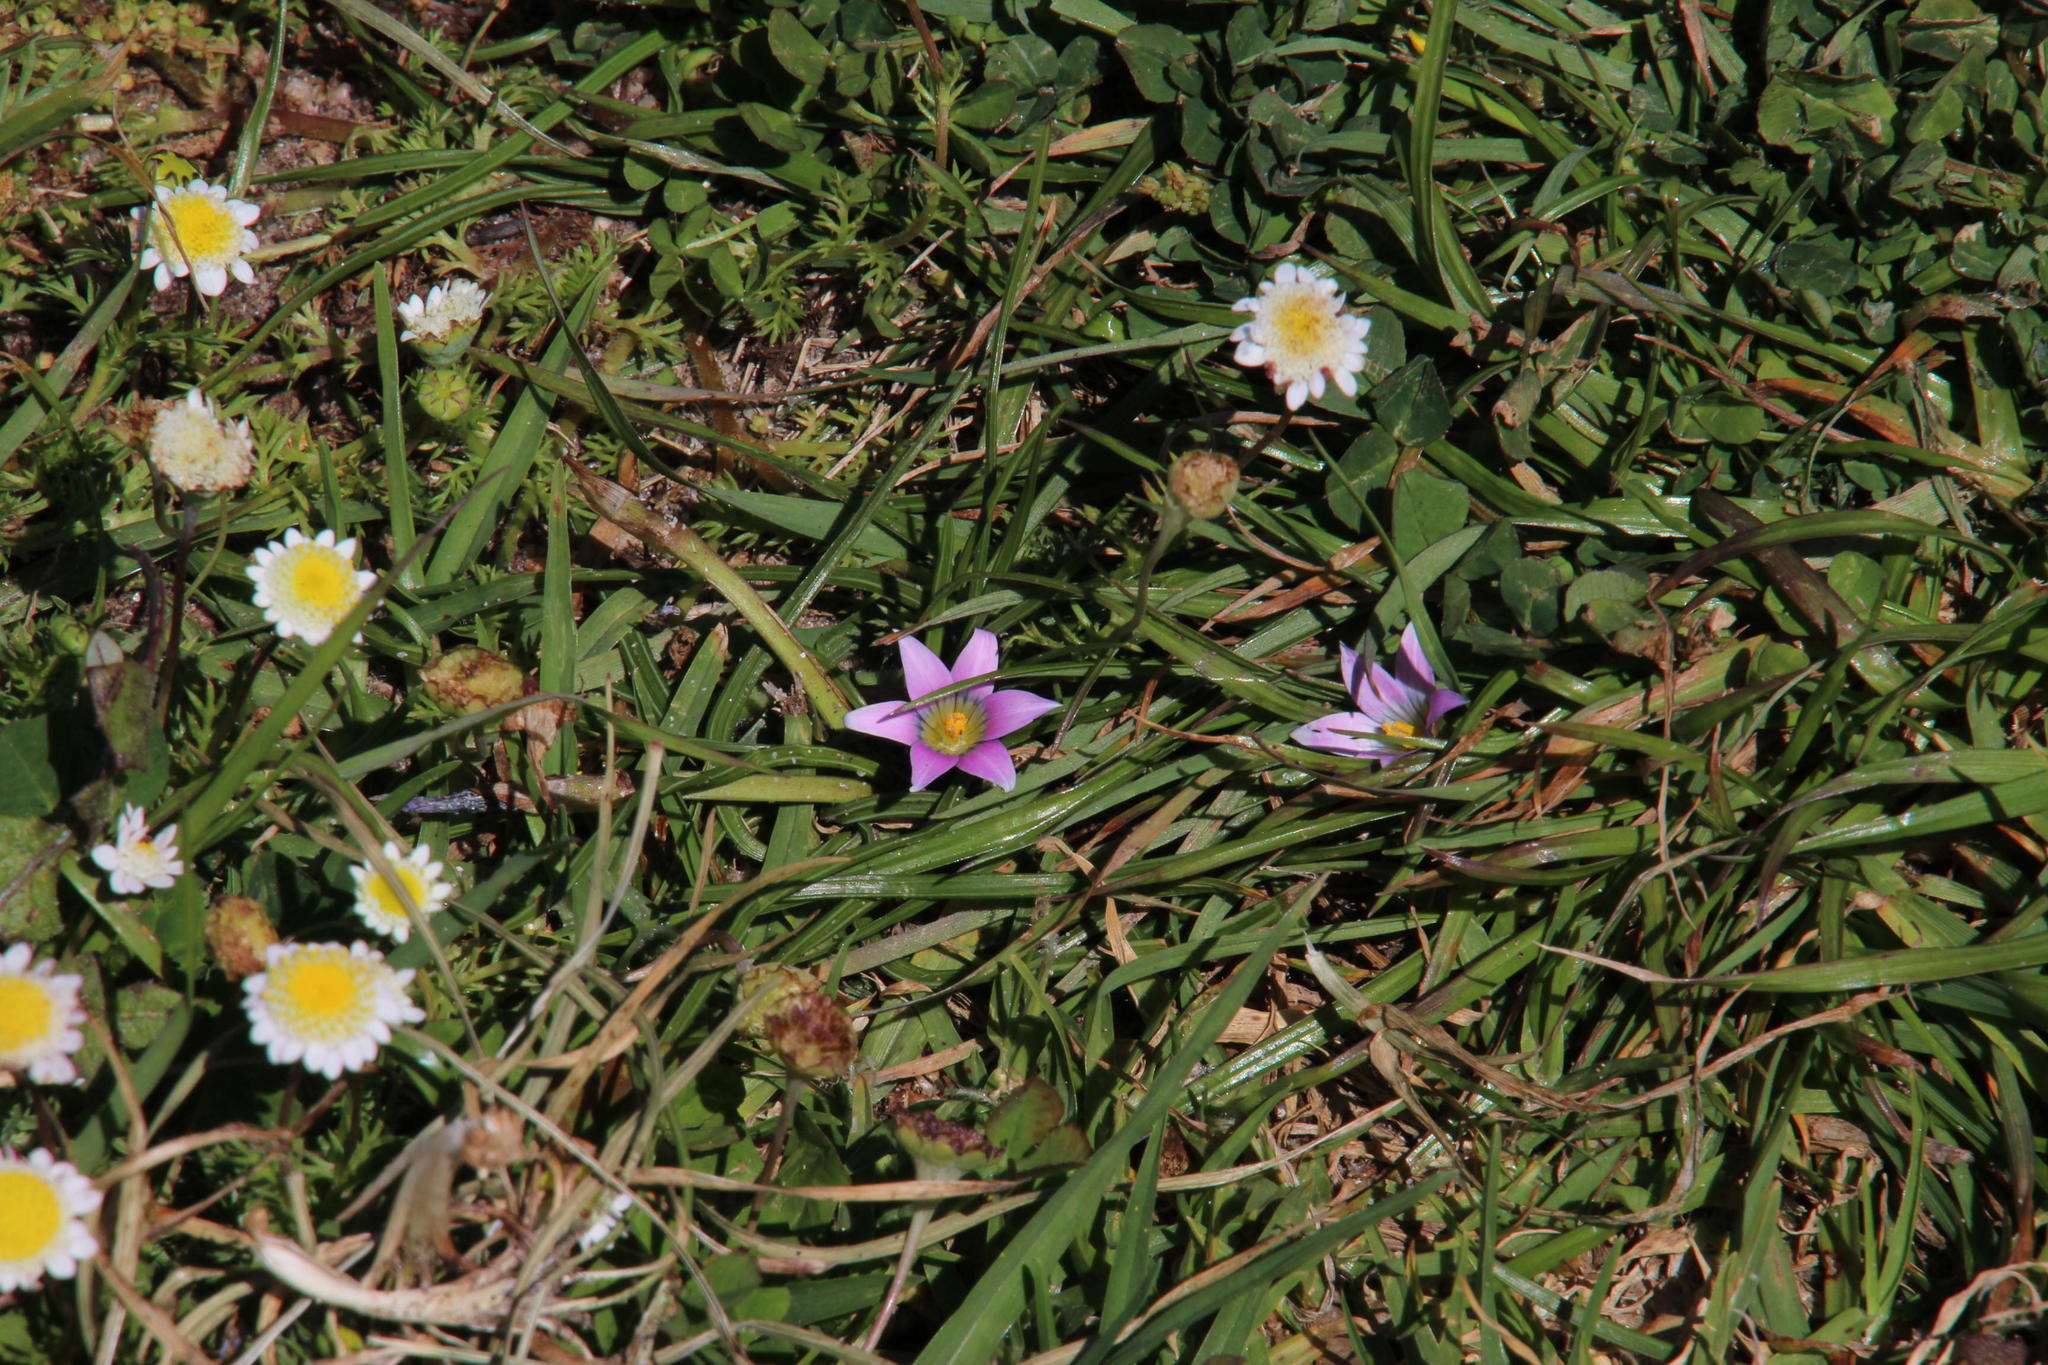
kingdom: Plantae
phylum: Tracheophyta
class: Liliopsida
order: Asparagales
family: Iridaceae
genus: Romulea
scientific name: Romulea rosea
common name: Oniongrass
